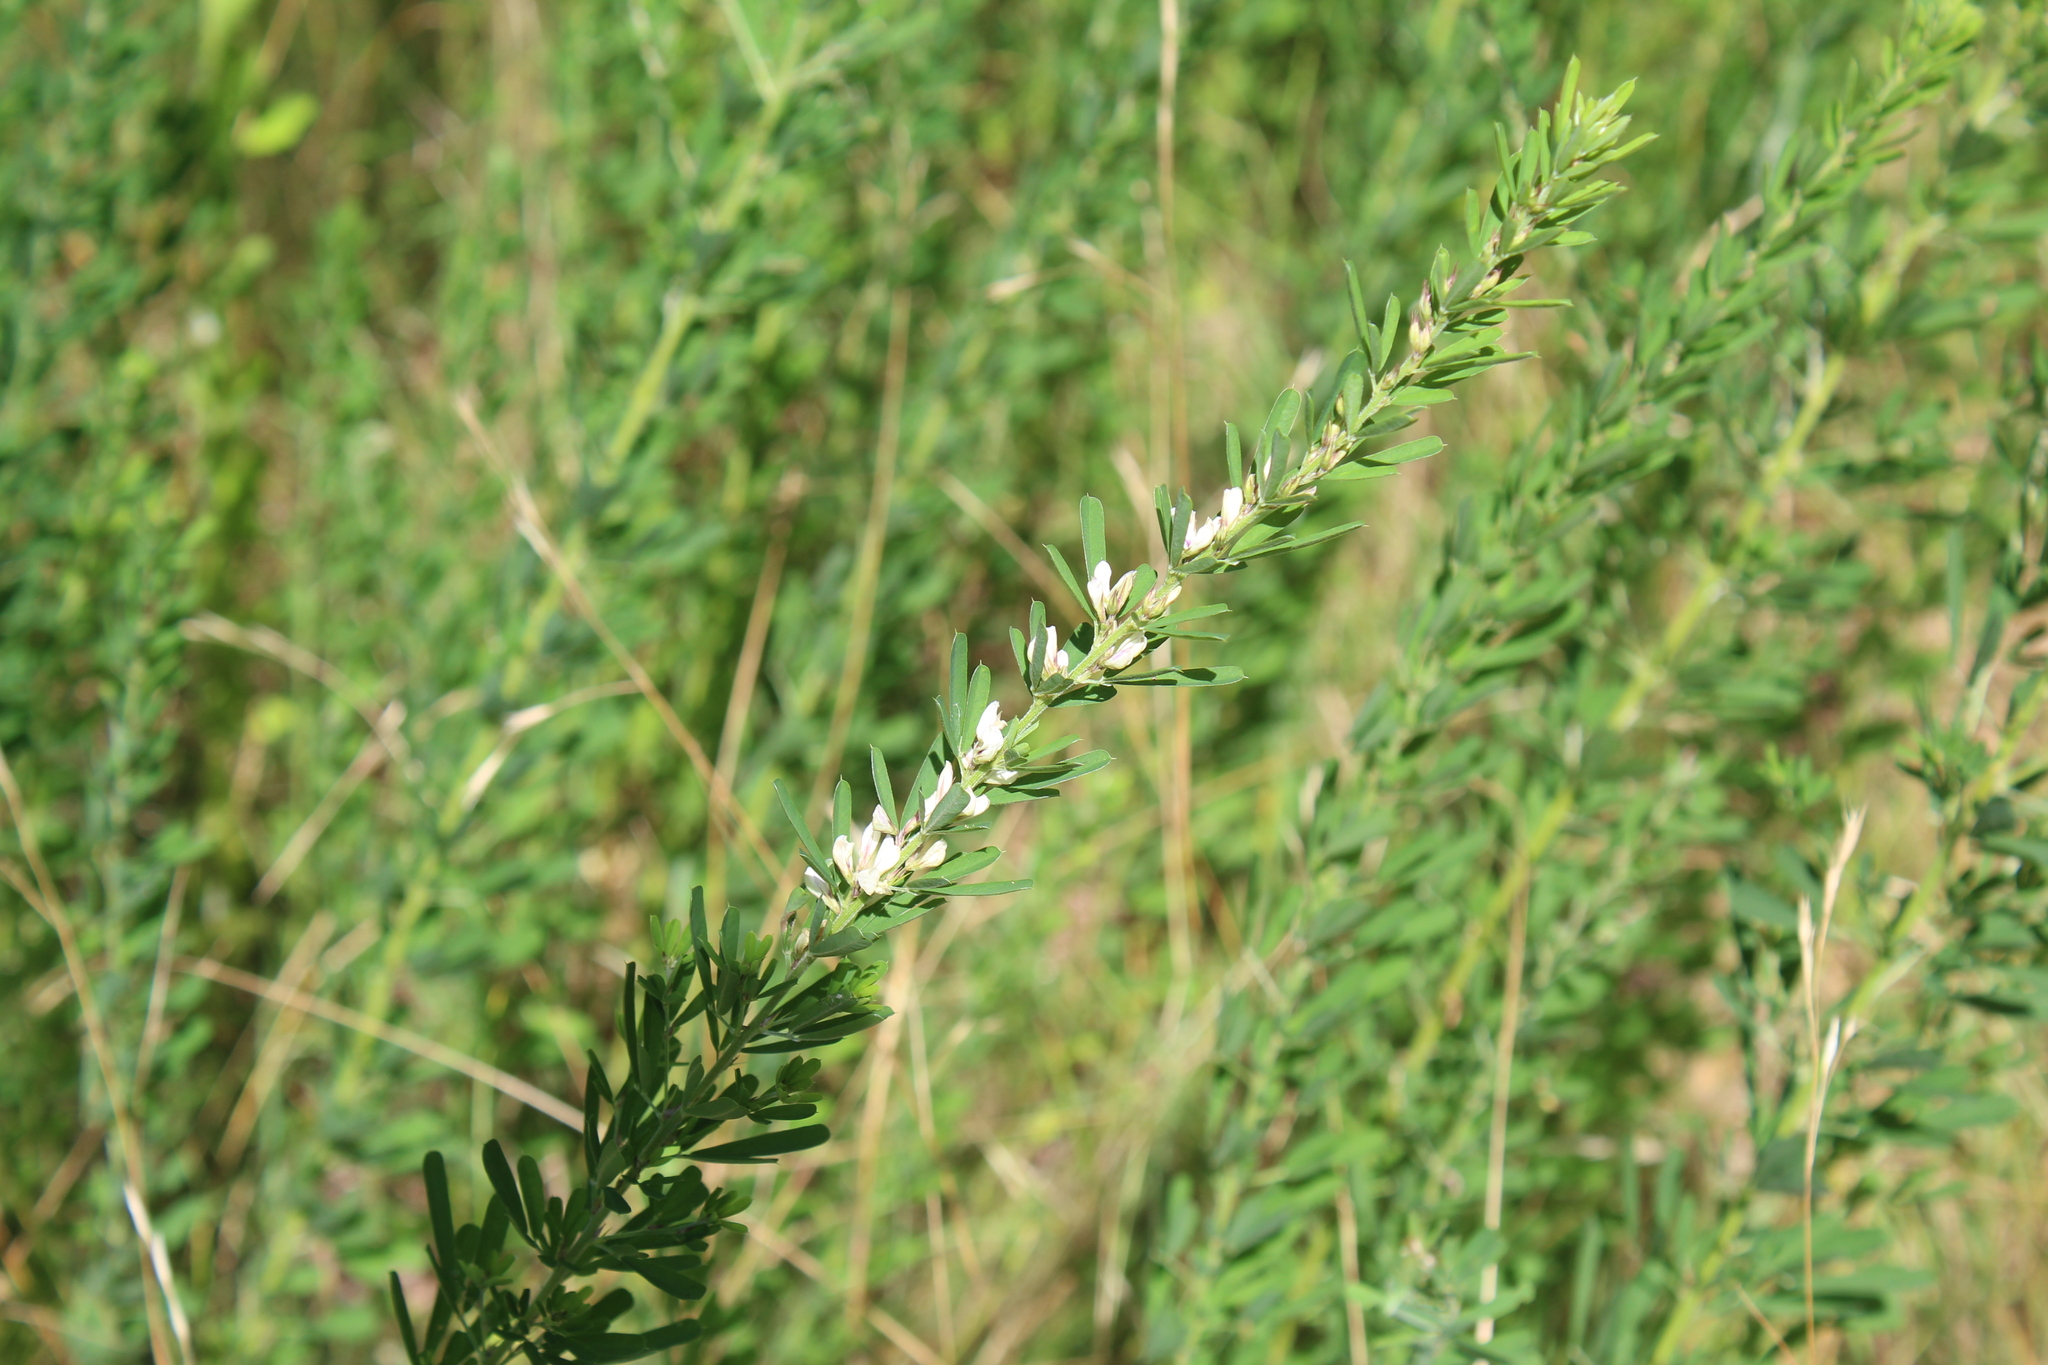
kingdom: Plantae
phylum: Tracheophyta
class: Magnoliopsida
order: Fabales
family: Fabaceae
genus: Lespedeza
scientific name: Lespedeza cuneata
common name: Chinese bush-clover
